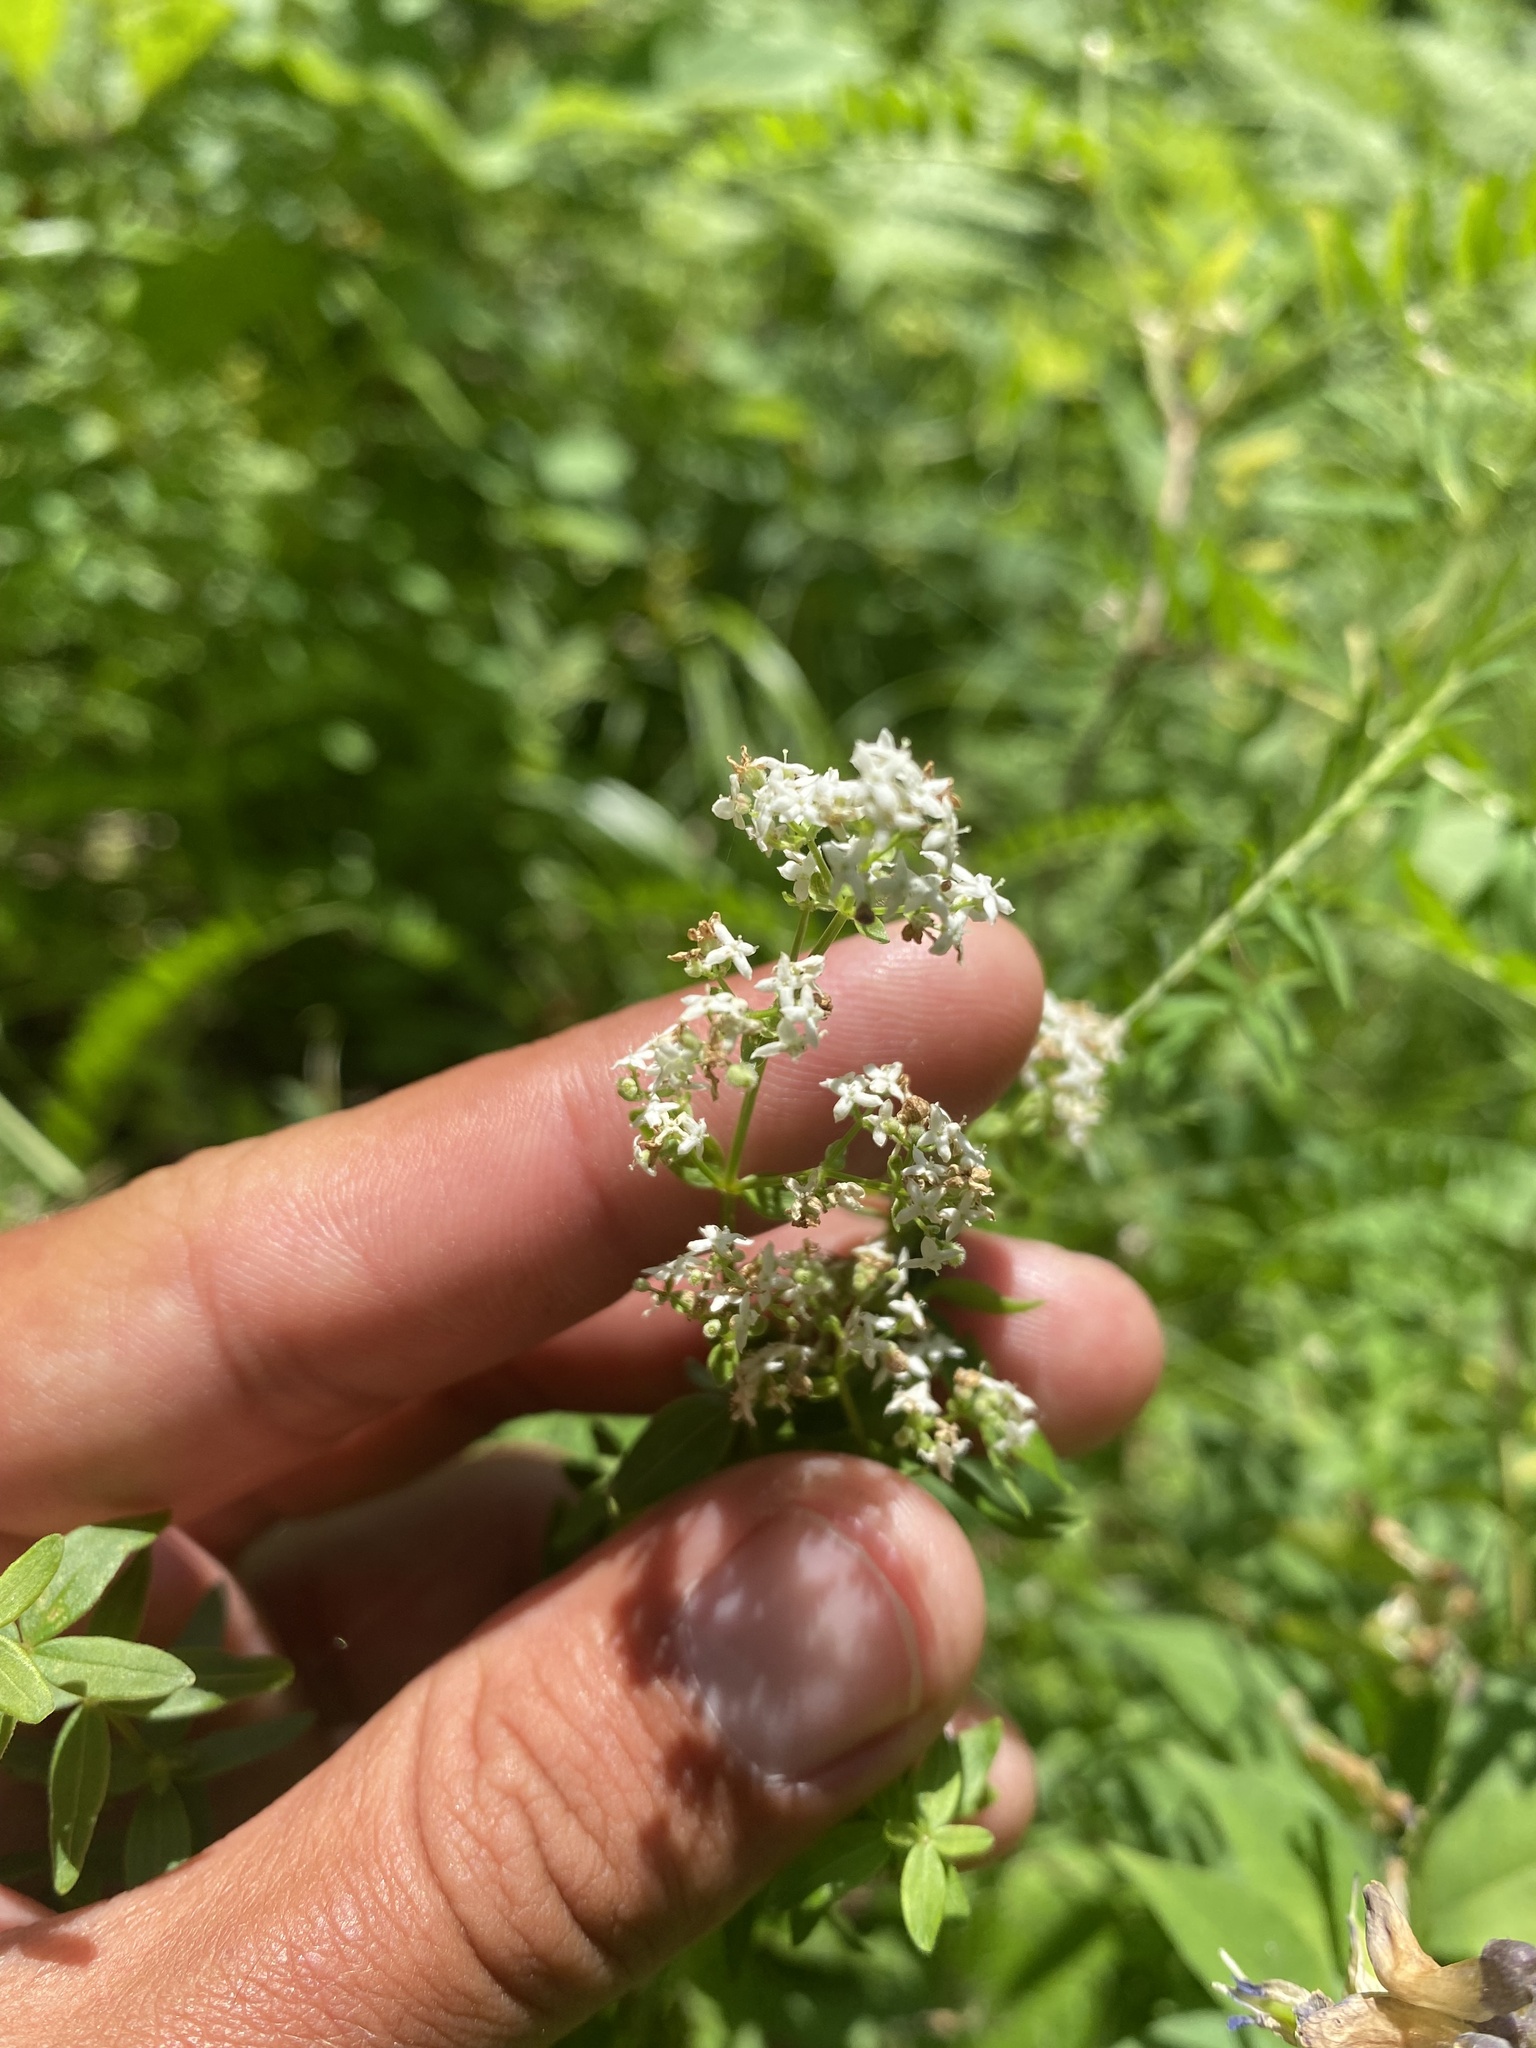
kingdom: Plantae
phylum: Tracheophyta
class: Magnoliopsida
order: Gentianales
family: Rubiaceae
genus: Galium
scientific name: Galium boreale
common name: Northern bedstraw
